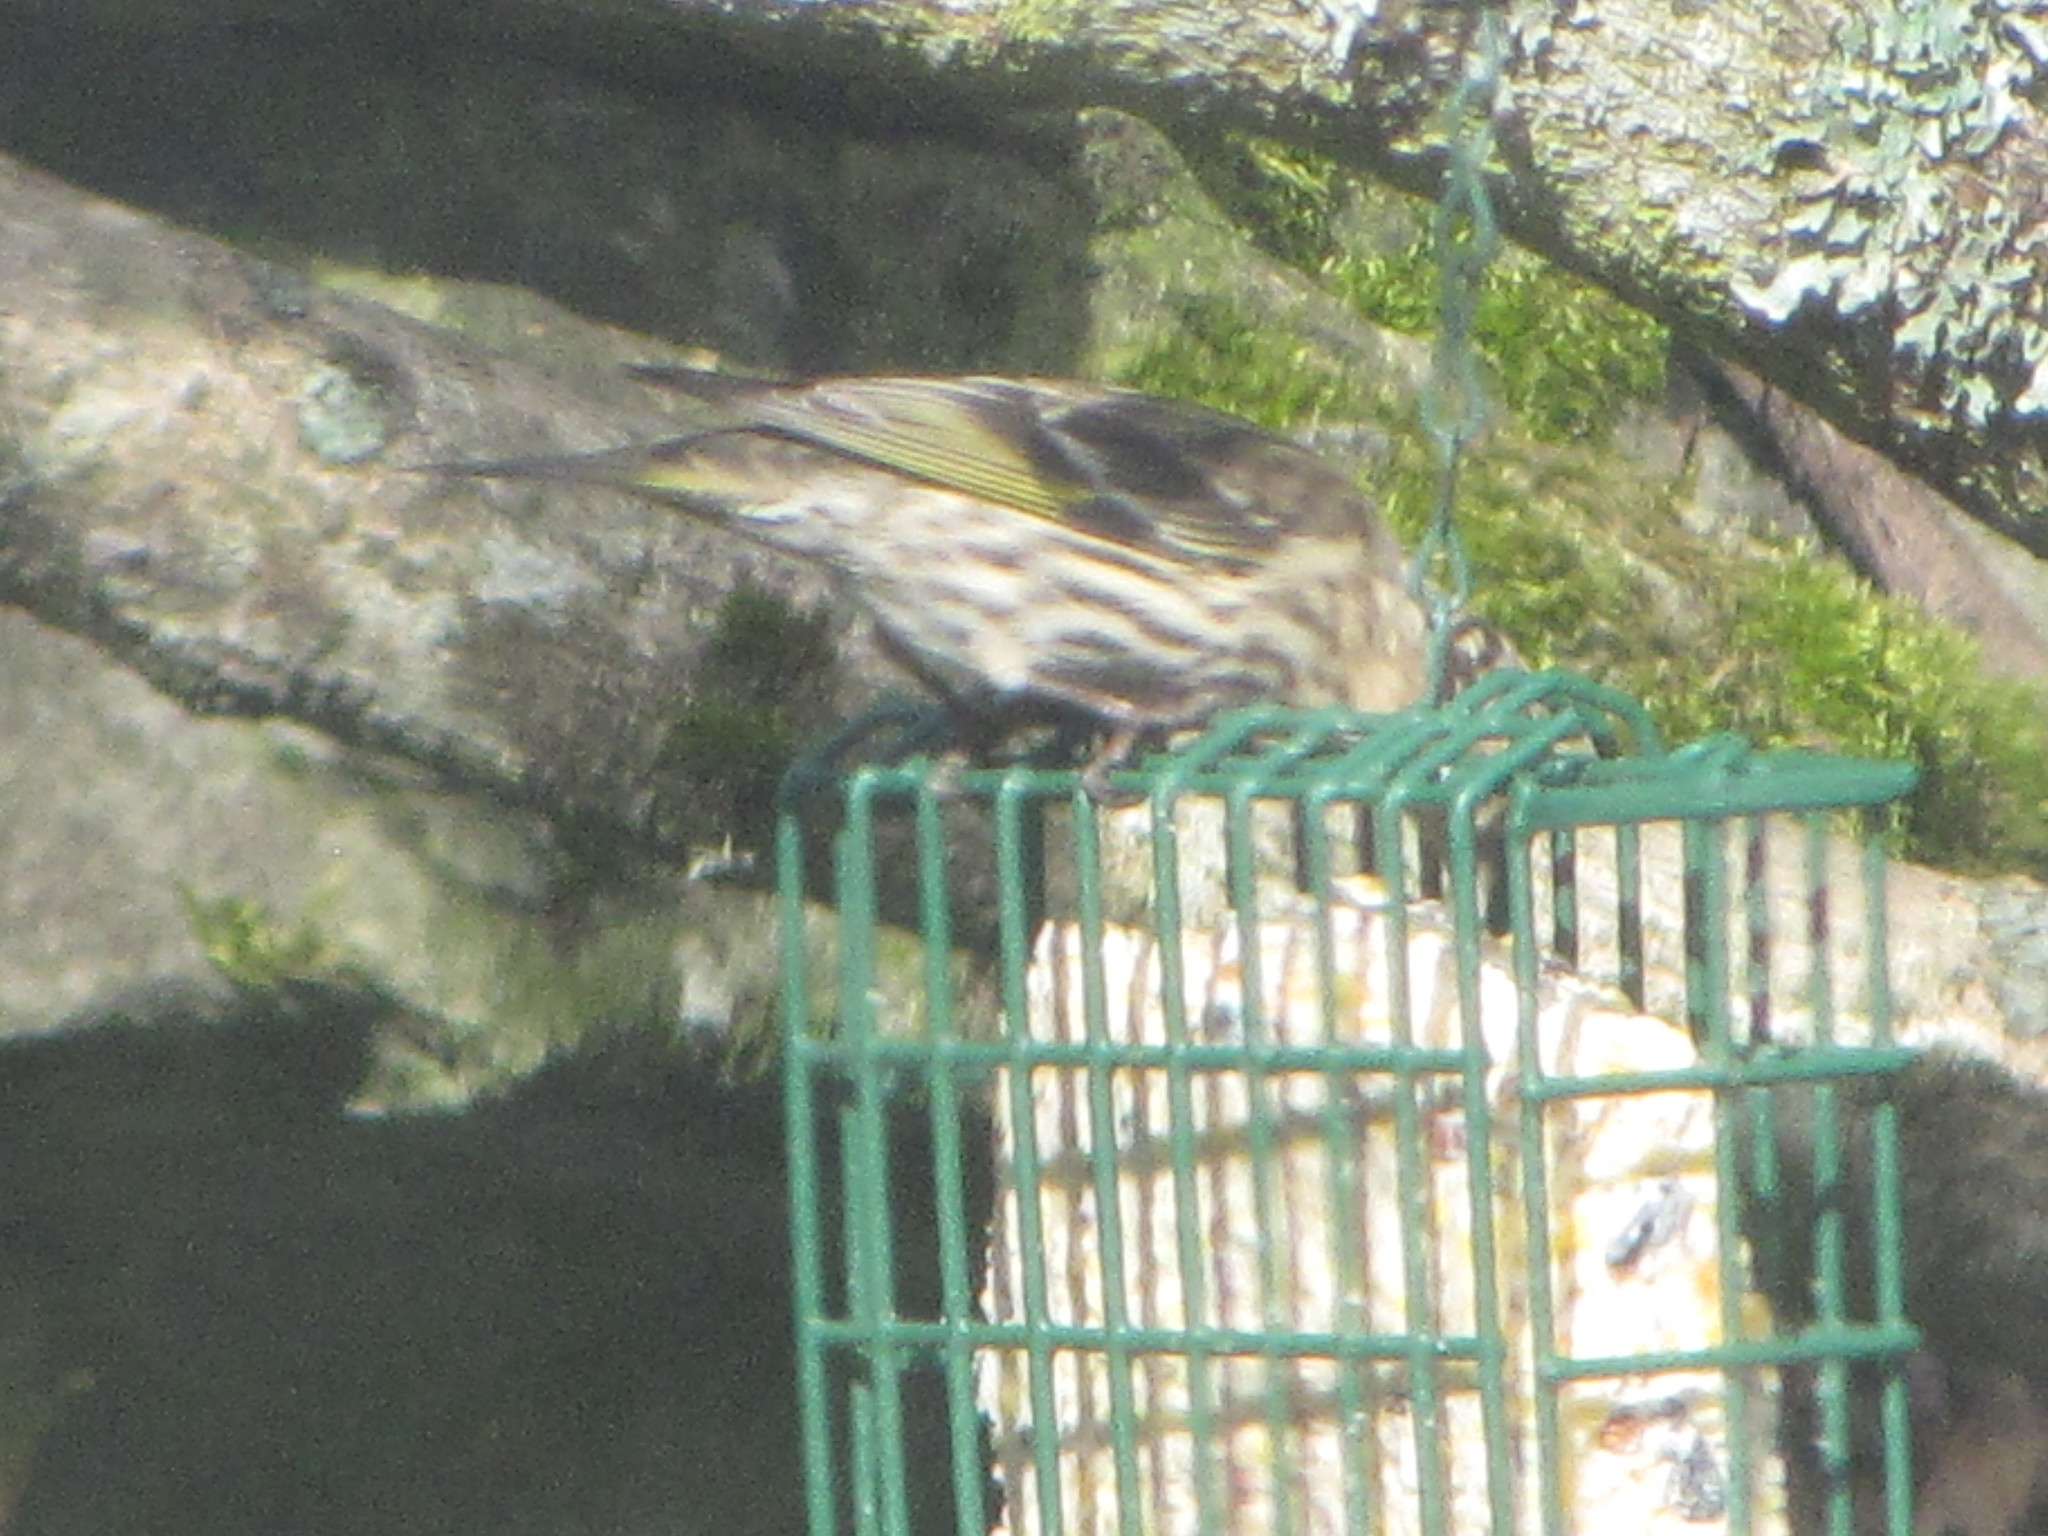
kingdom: Animalia
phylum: Chordata
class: Aves
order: Passeriformes
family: Fringillidae
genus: Spinus
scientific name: Spinus pinus
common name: Pine siskin
